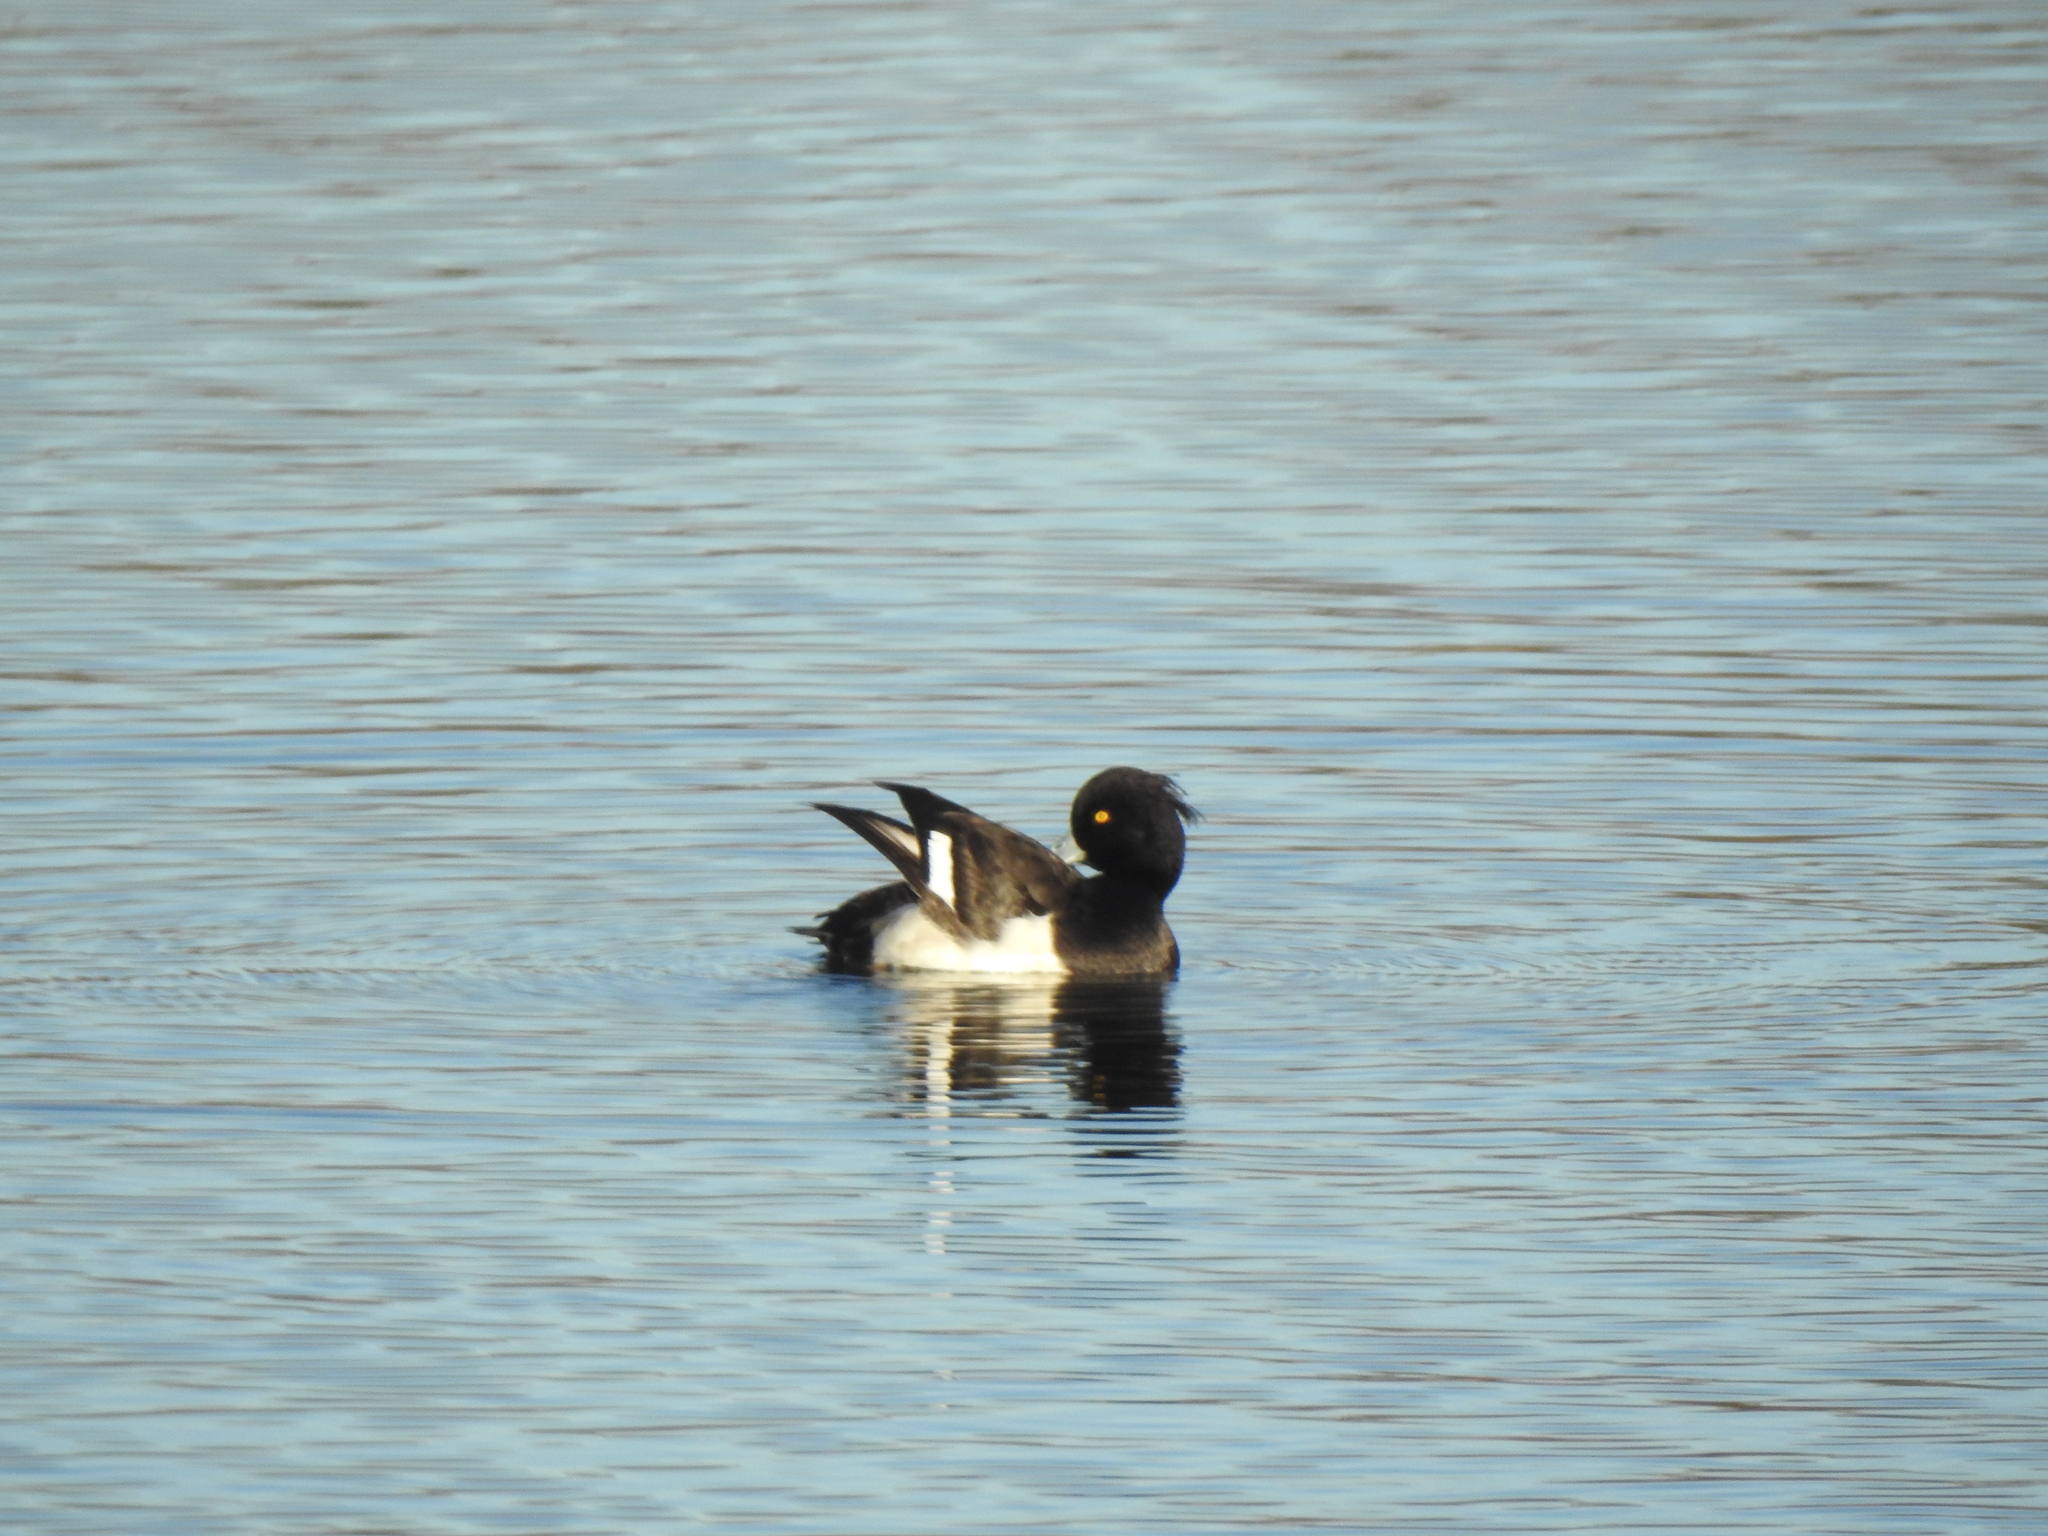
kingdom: Animalia
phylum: Chordata
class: Aves
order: Anseriformes
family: Anatidae
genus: Aythya
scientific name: Aythya fuligula
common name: Tufted duck
